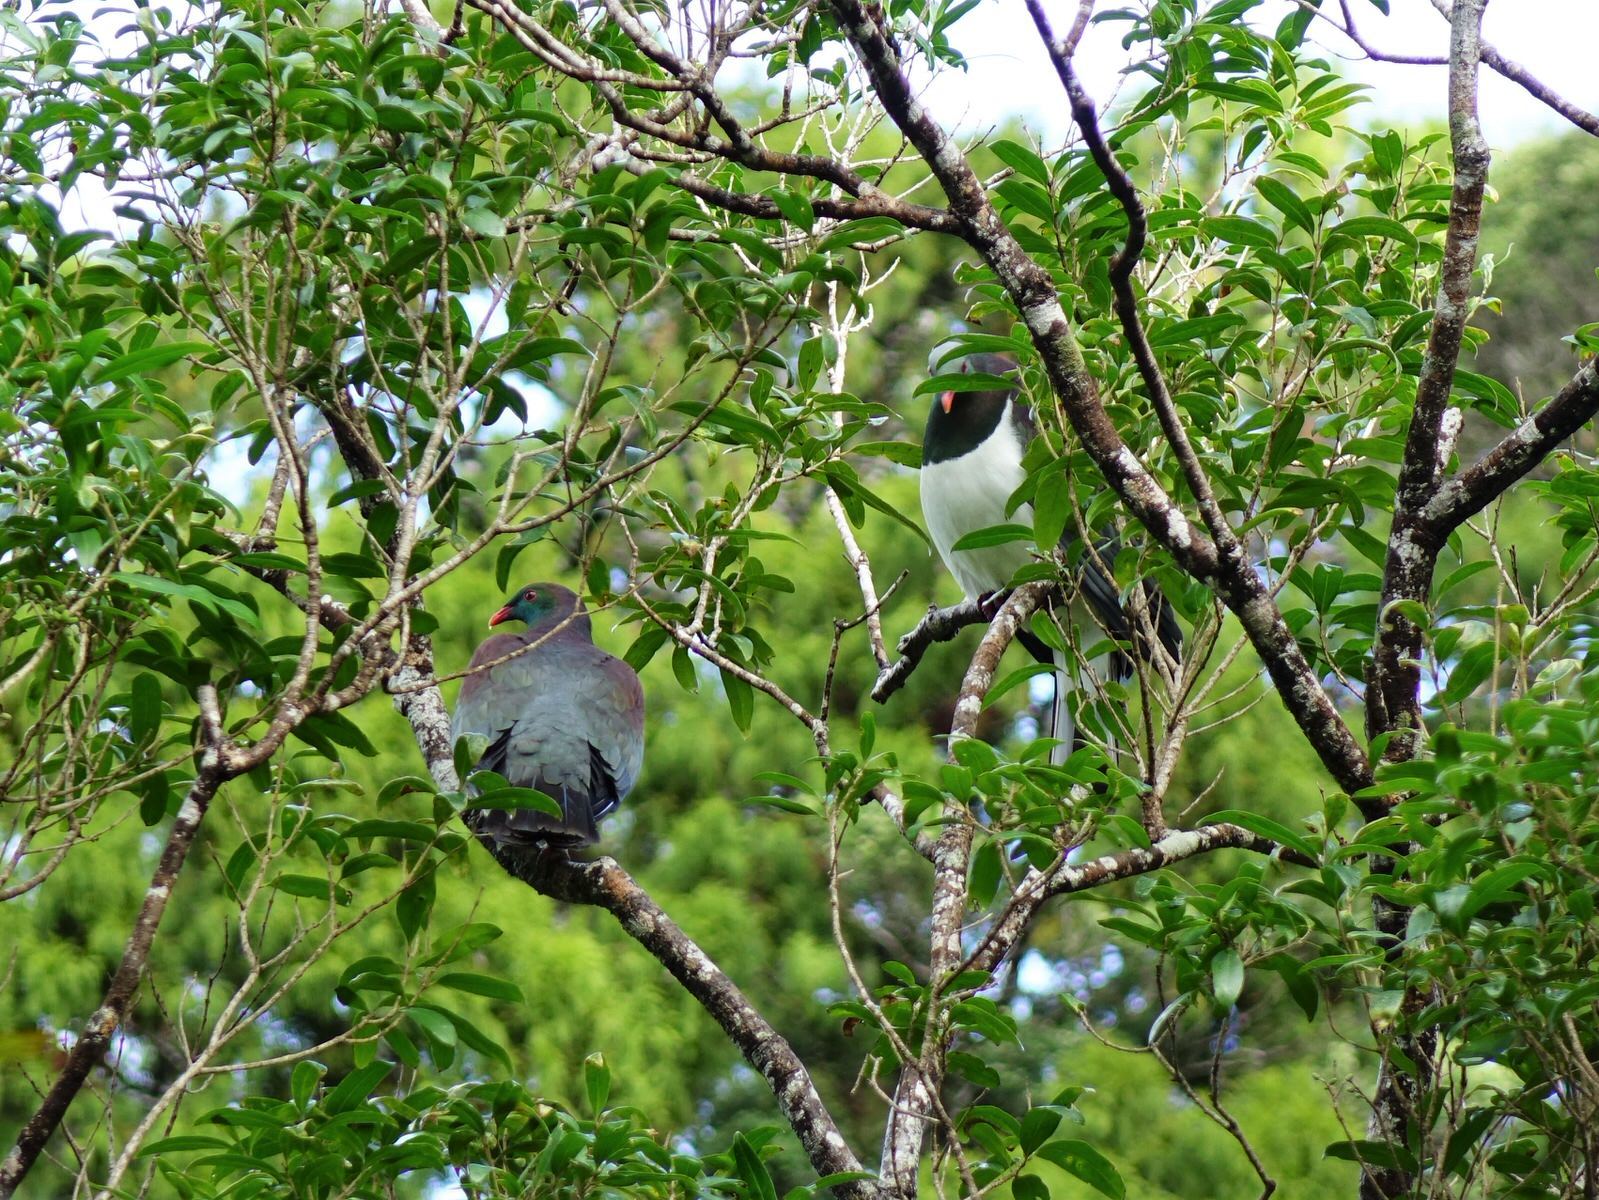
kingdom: Animalia
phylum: Chordata
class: Aves
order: Columbiformes
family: Columbidae
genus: Hemiphaga
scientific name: Hemiphaga novaeseelandiae
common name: New zealand pigeon
